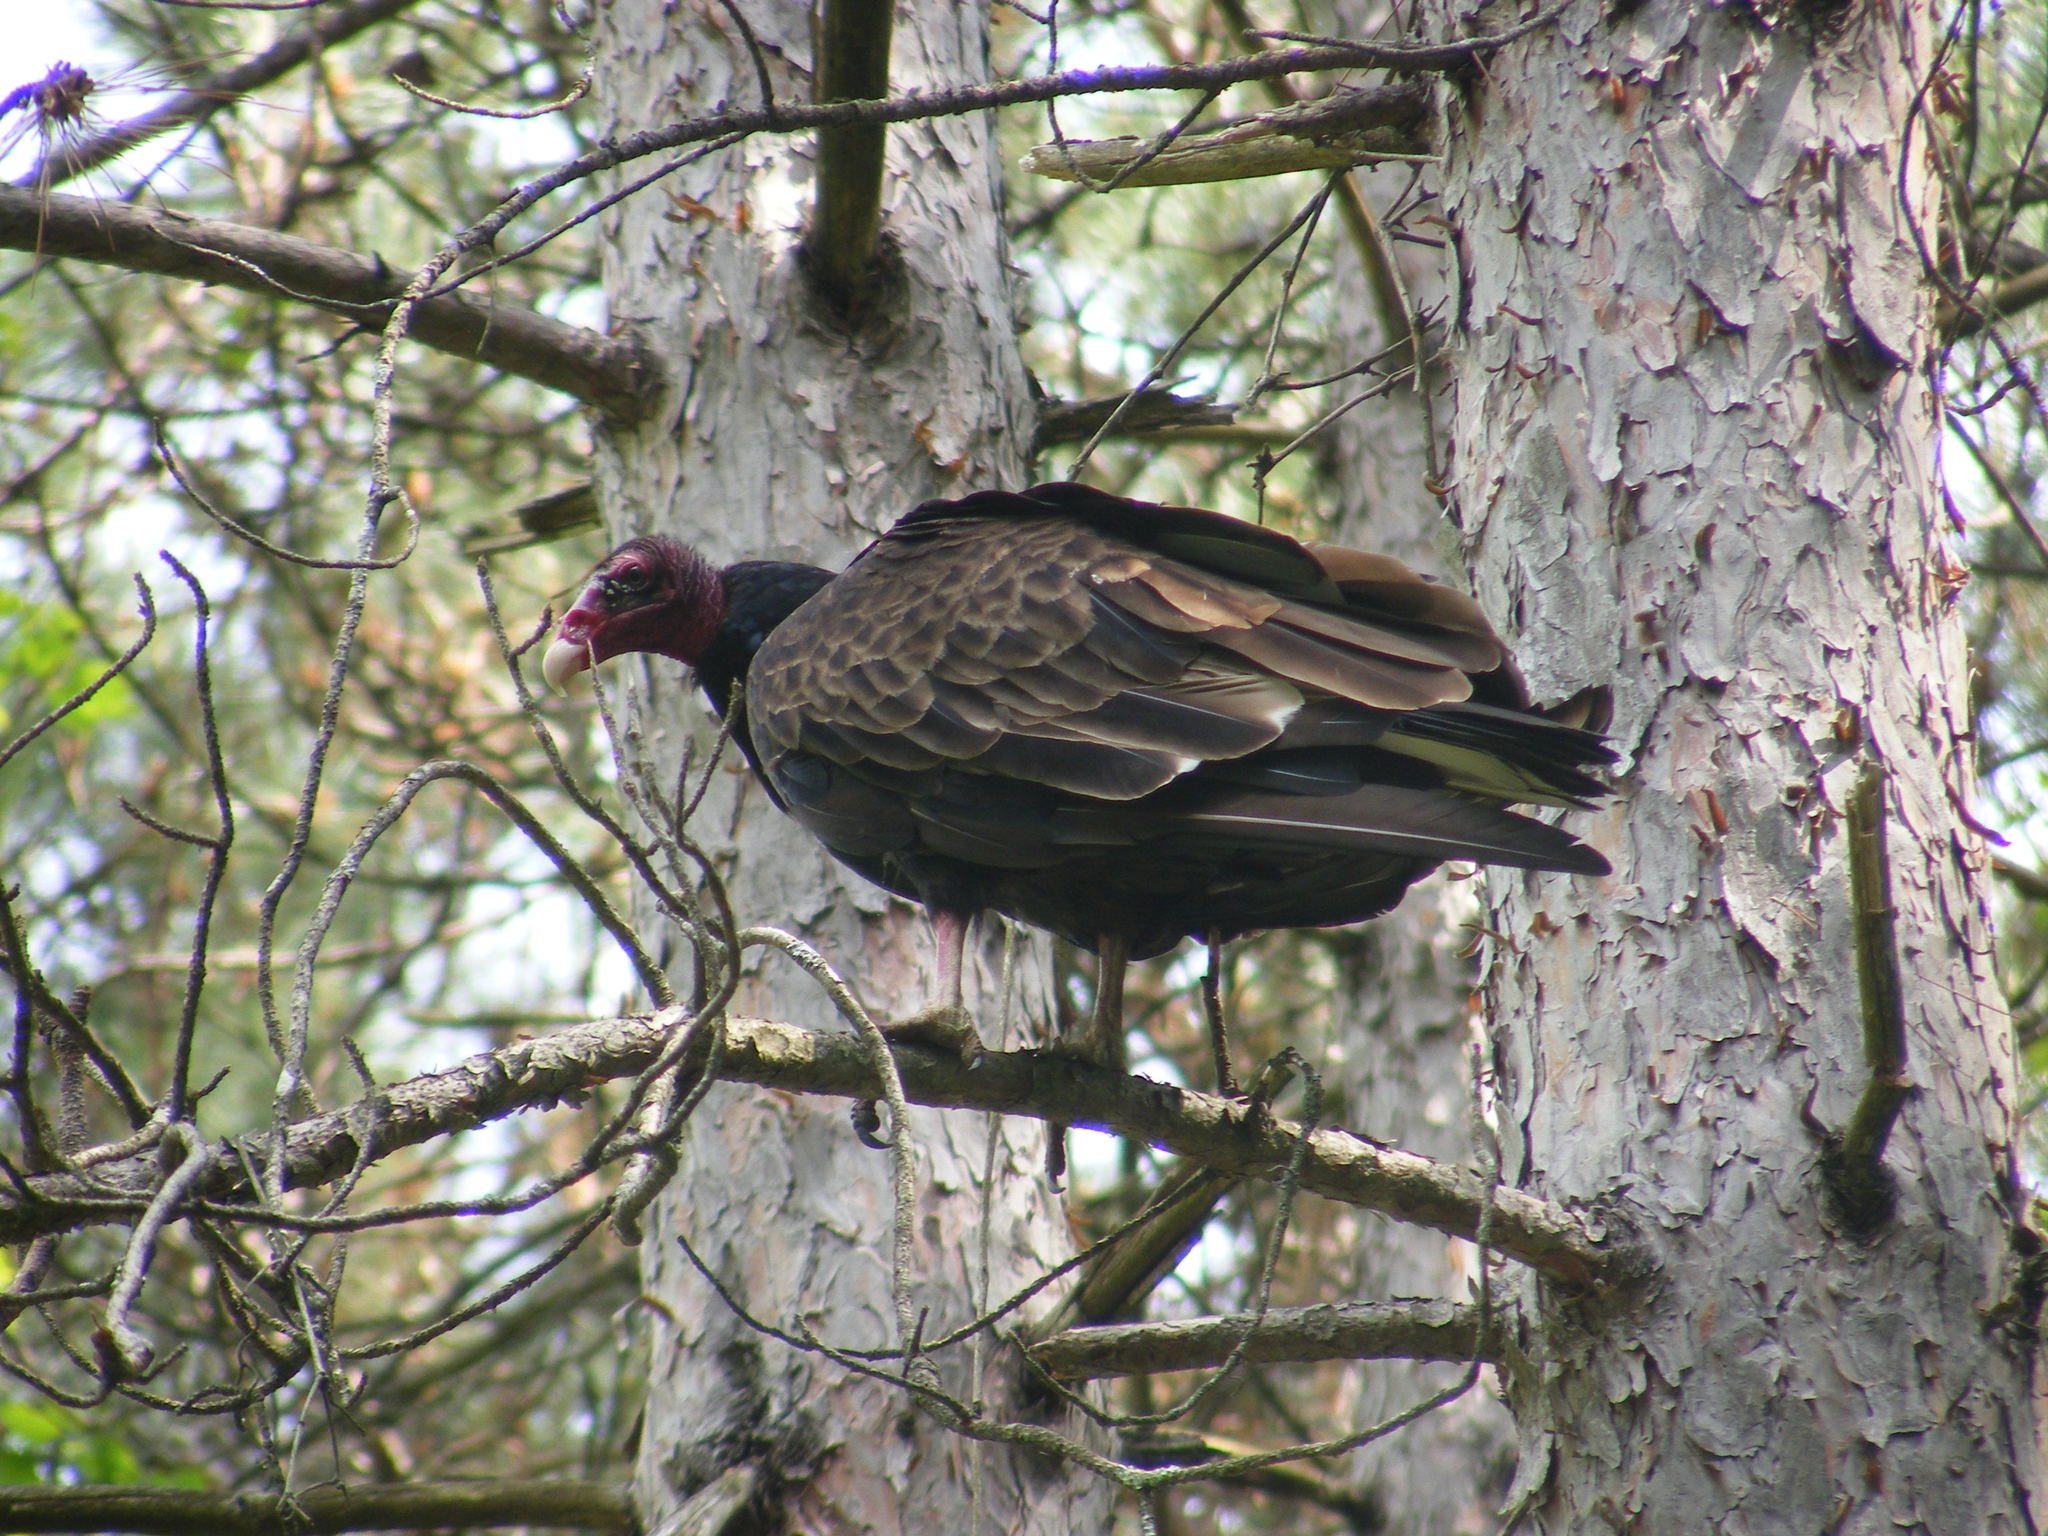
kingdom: Animalia
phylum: Chordata
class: Aves
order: Accipitriformes
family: Cathartidae
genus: Cathartes
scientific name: Cathartes aura
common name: Turkey vulture
